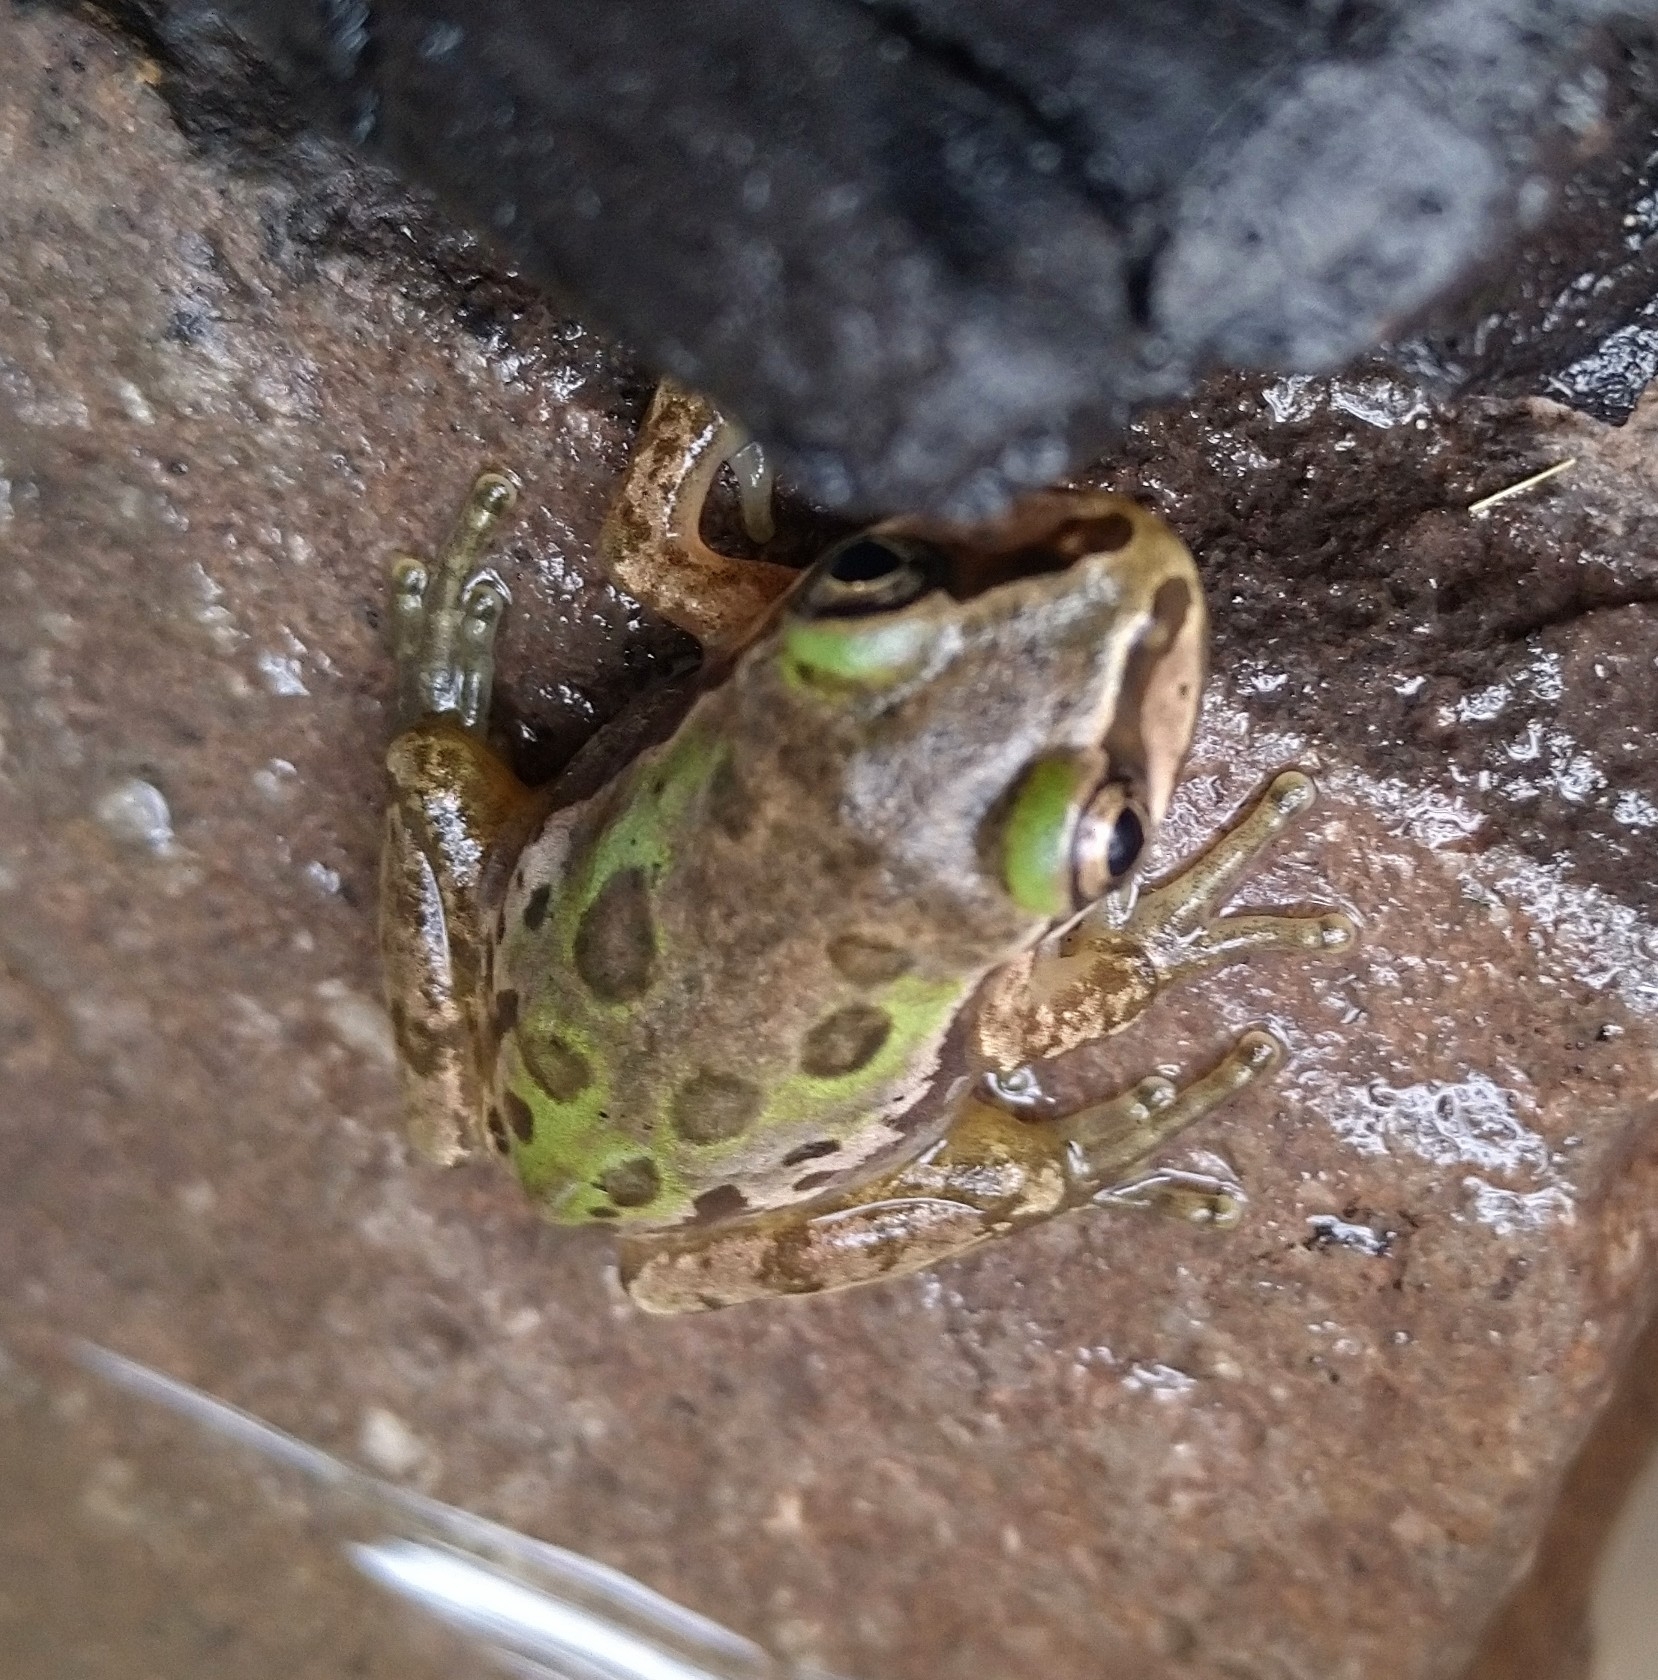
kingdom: Animalia
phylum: Chordata
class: Amphibia
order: Anura
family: Hylidae
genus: Smilisca
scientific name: Smilisca fodiens
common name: Lowland burrowing treefrog
